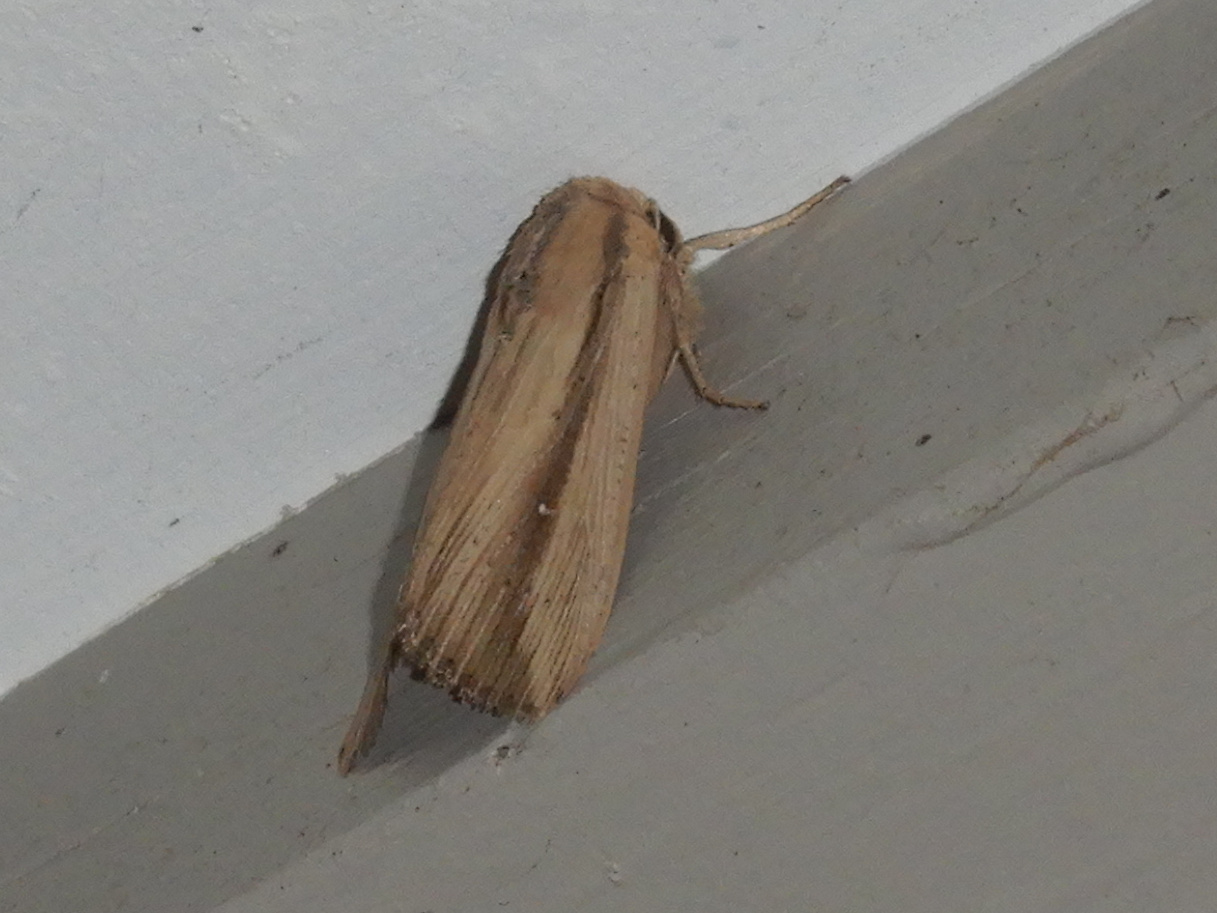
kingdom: Animalia
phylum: Arthropoda
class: Insecta
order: Lepidoptera
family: Noctuidae
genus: Leucania
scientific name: Leucania stenographa
